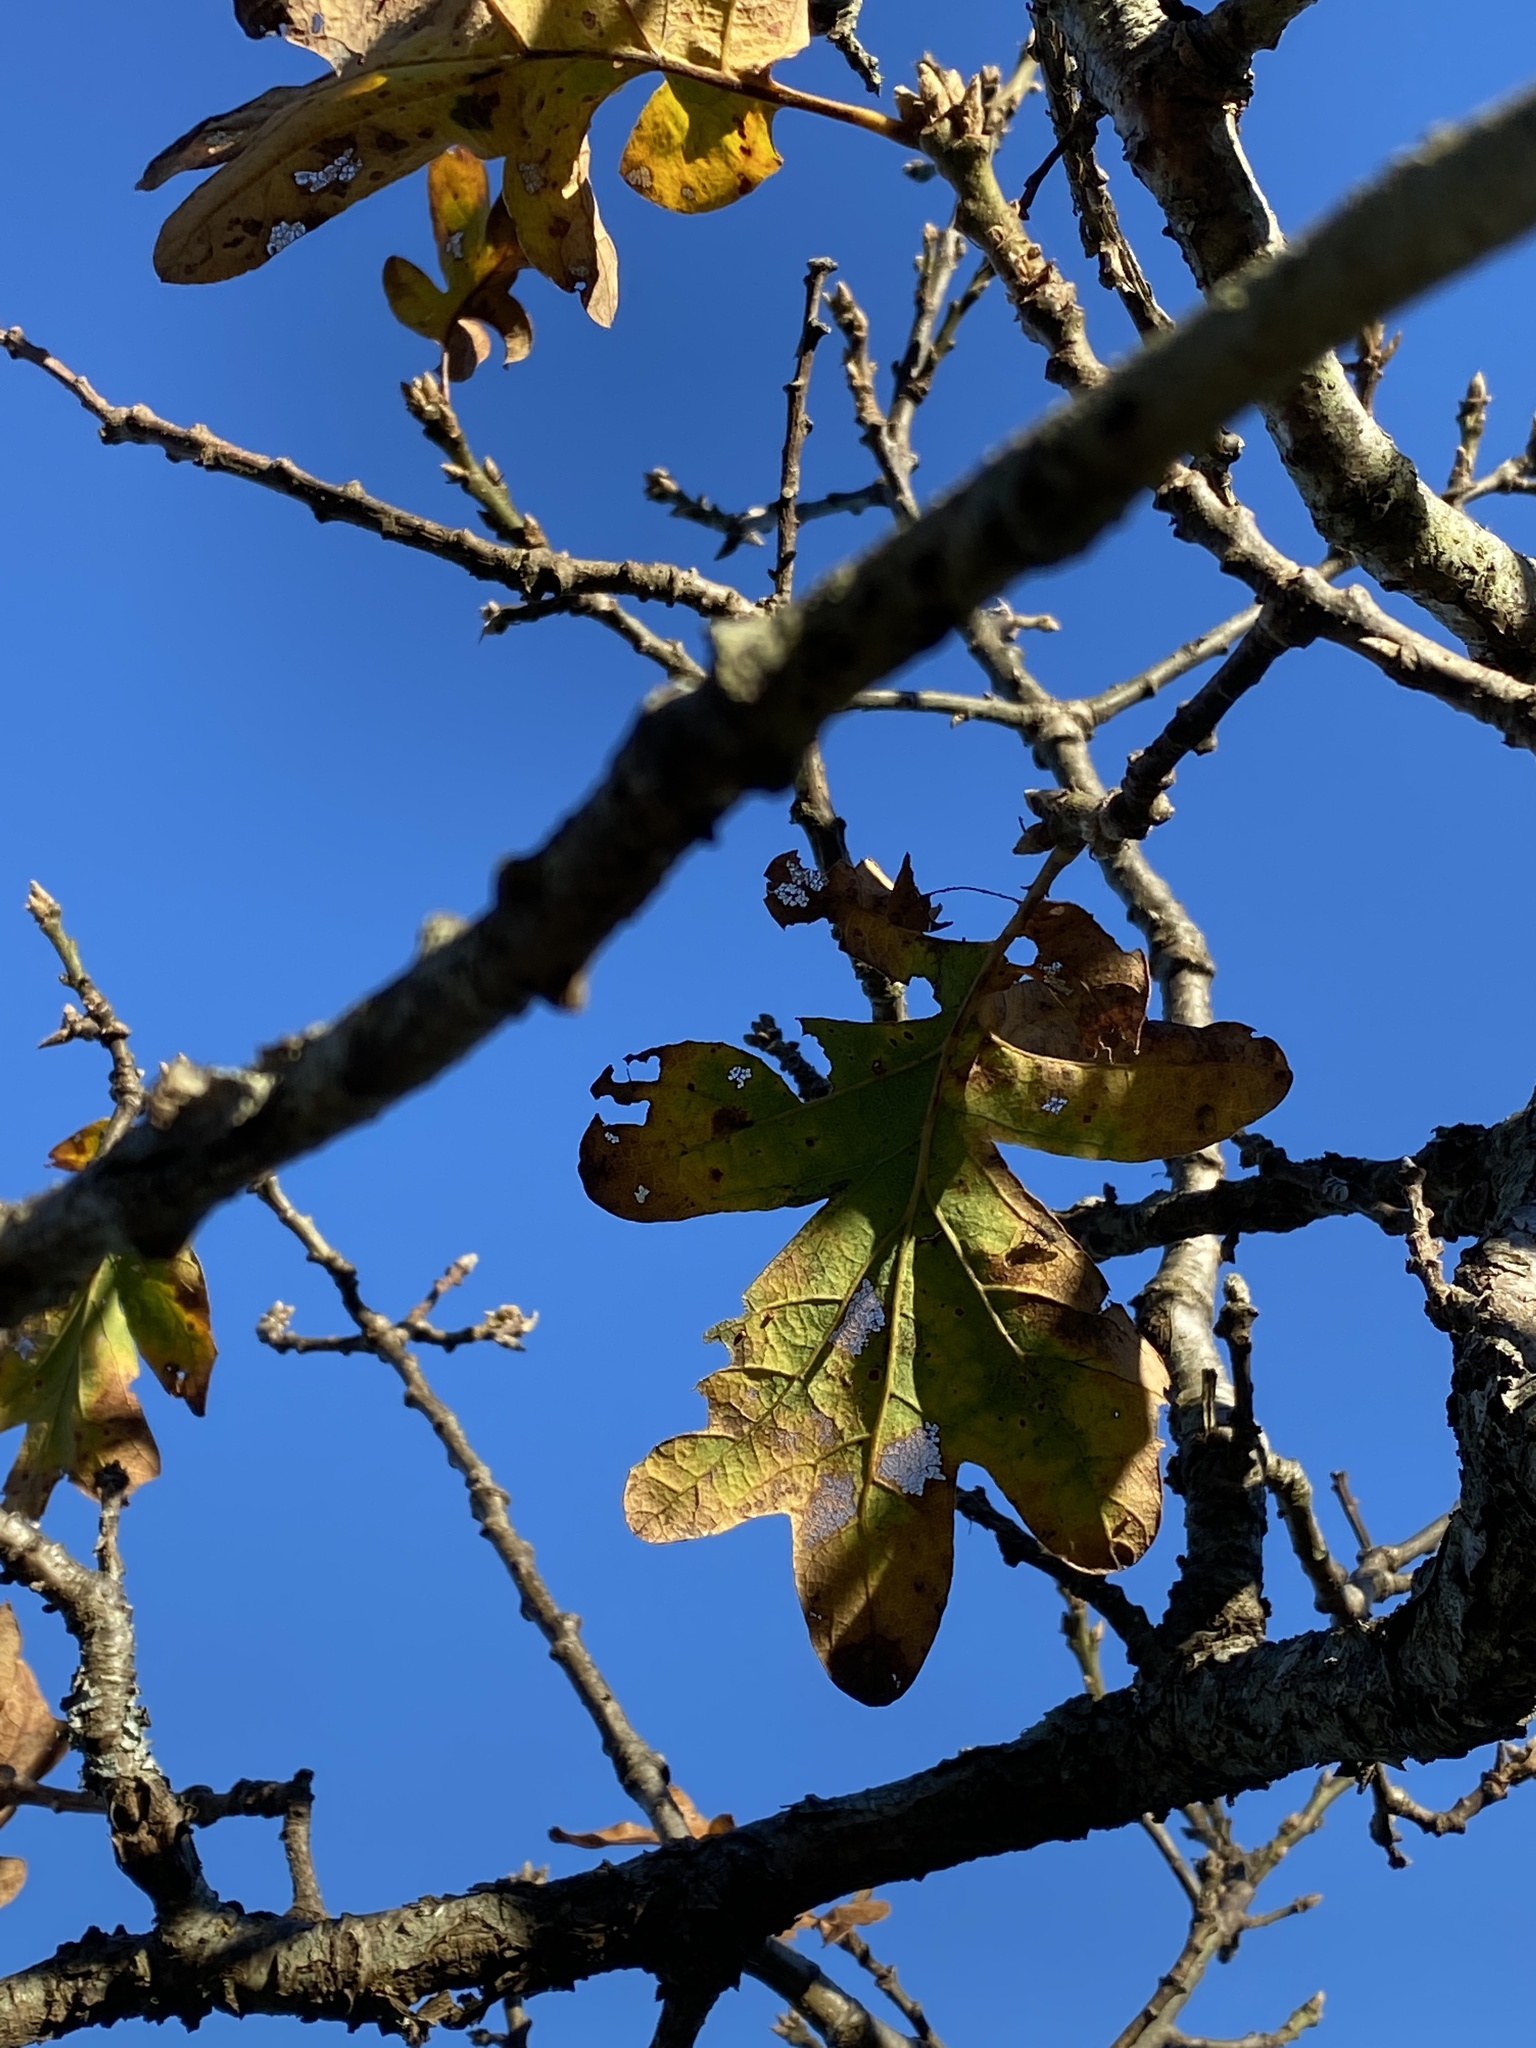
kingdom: Plantae
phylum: Tracheophyta
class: Magnoliopsida
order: Fagales
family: Fagaceae
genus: Quercus
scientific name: Quercus garryana
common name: Garry oak
